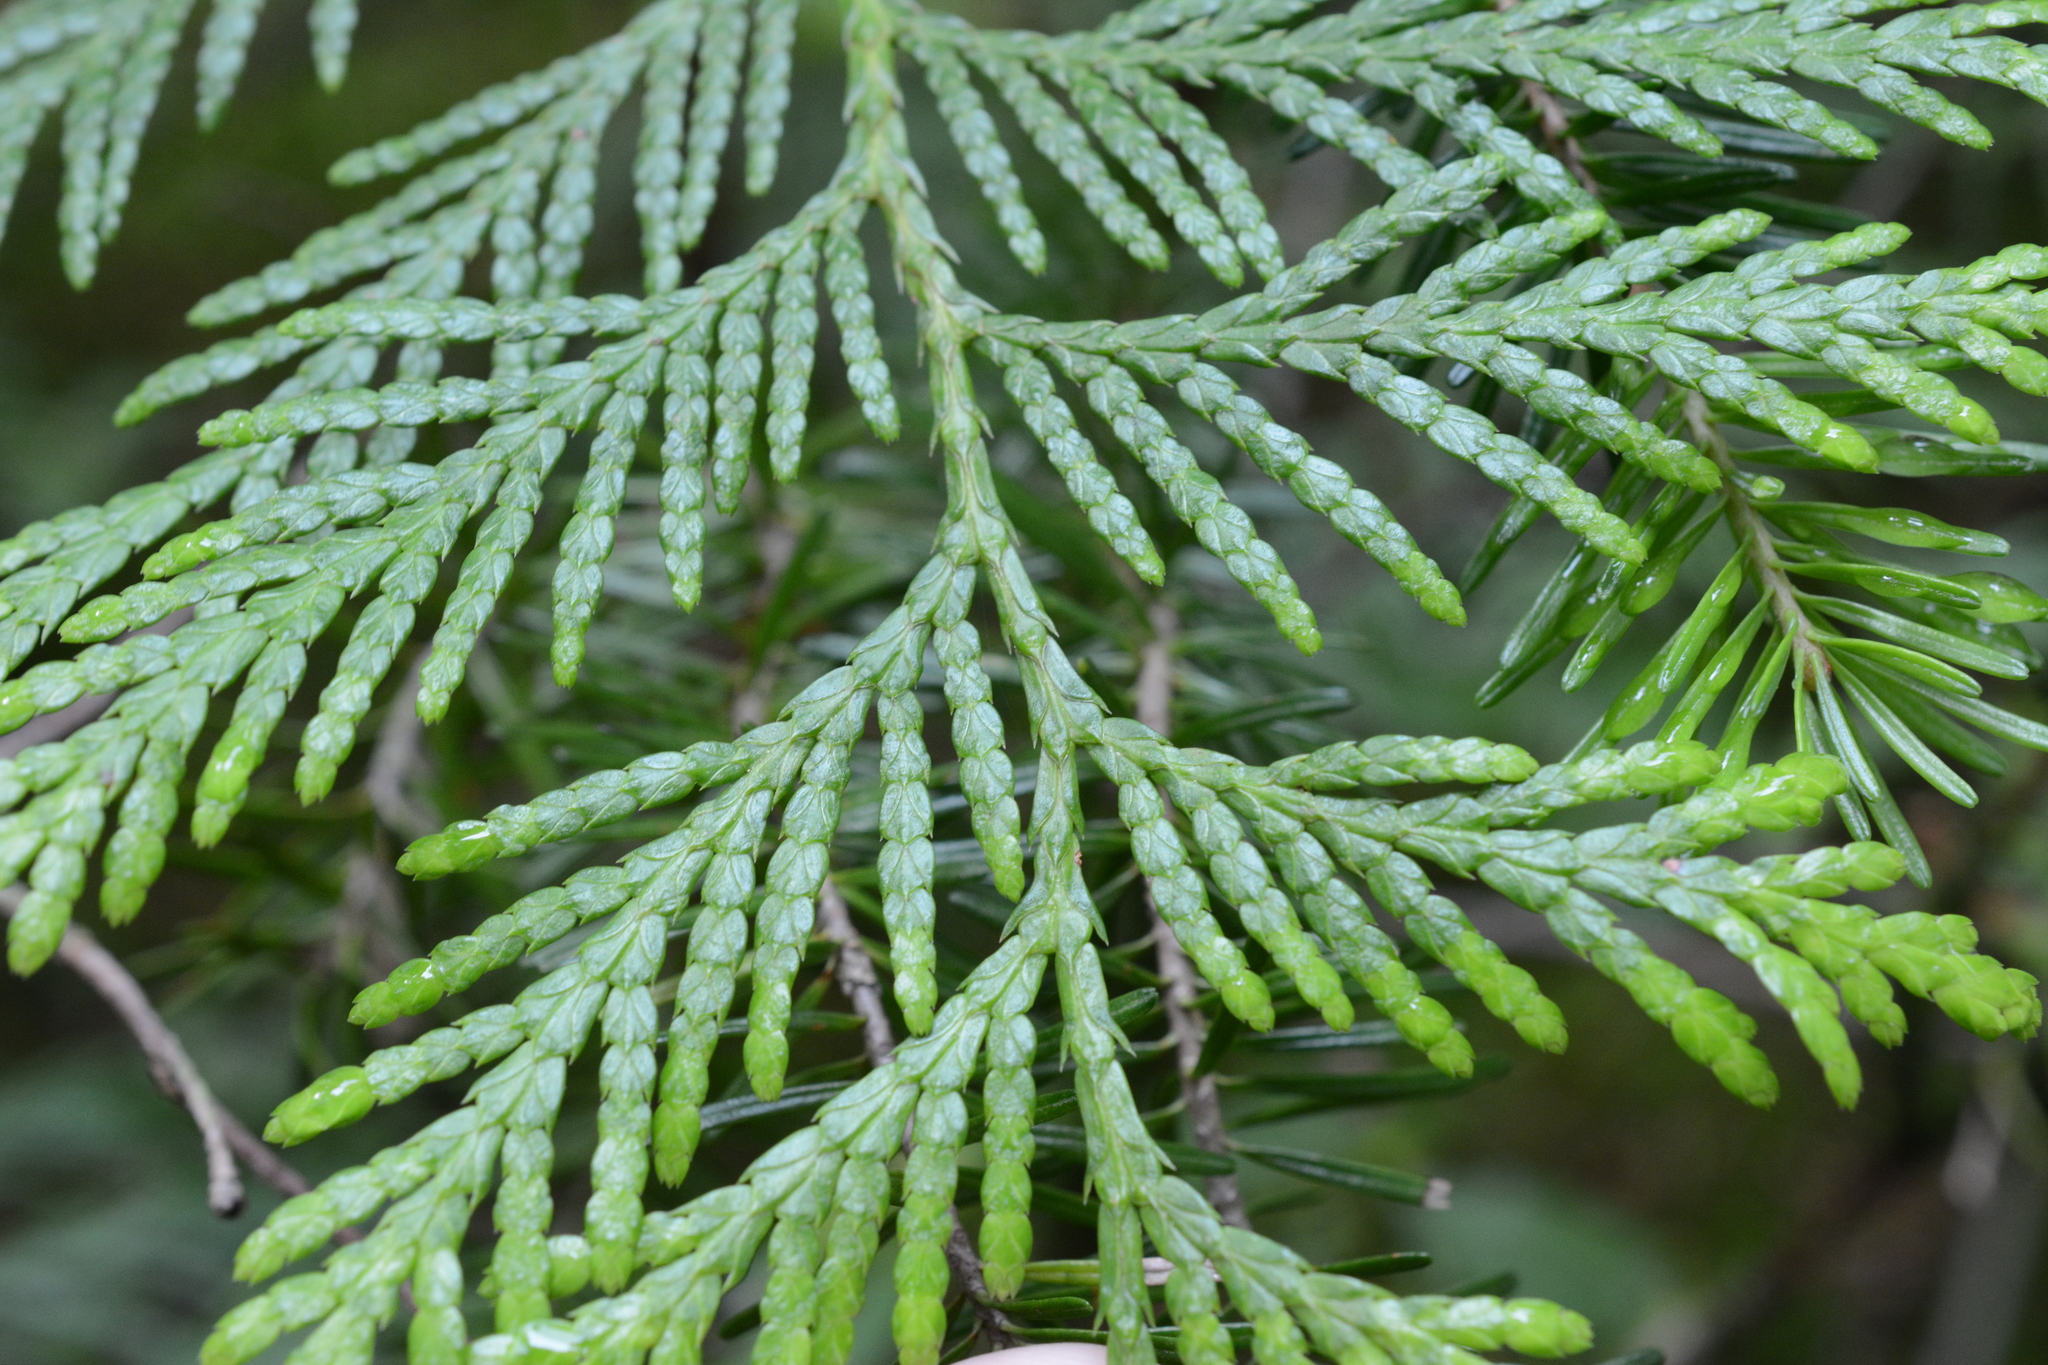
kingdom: Plantae
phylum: Tracheophyta
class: Pinopsida
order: Pinales
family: Cupressaceae
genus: Thuja
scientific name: Thuja plicata
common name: Western red-cedar
